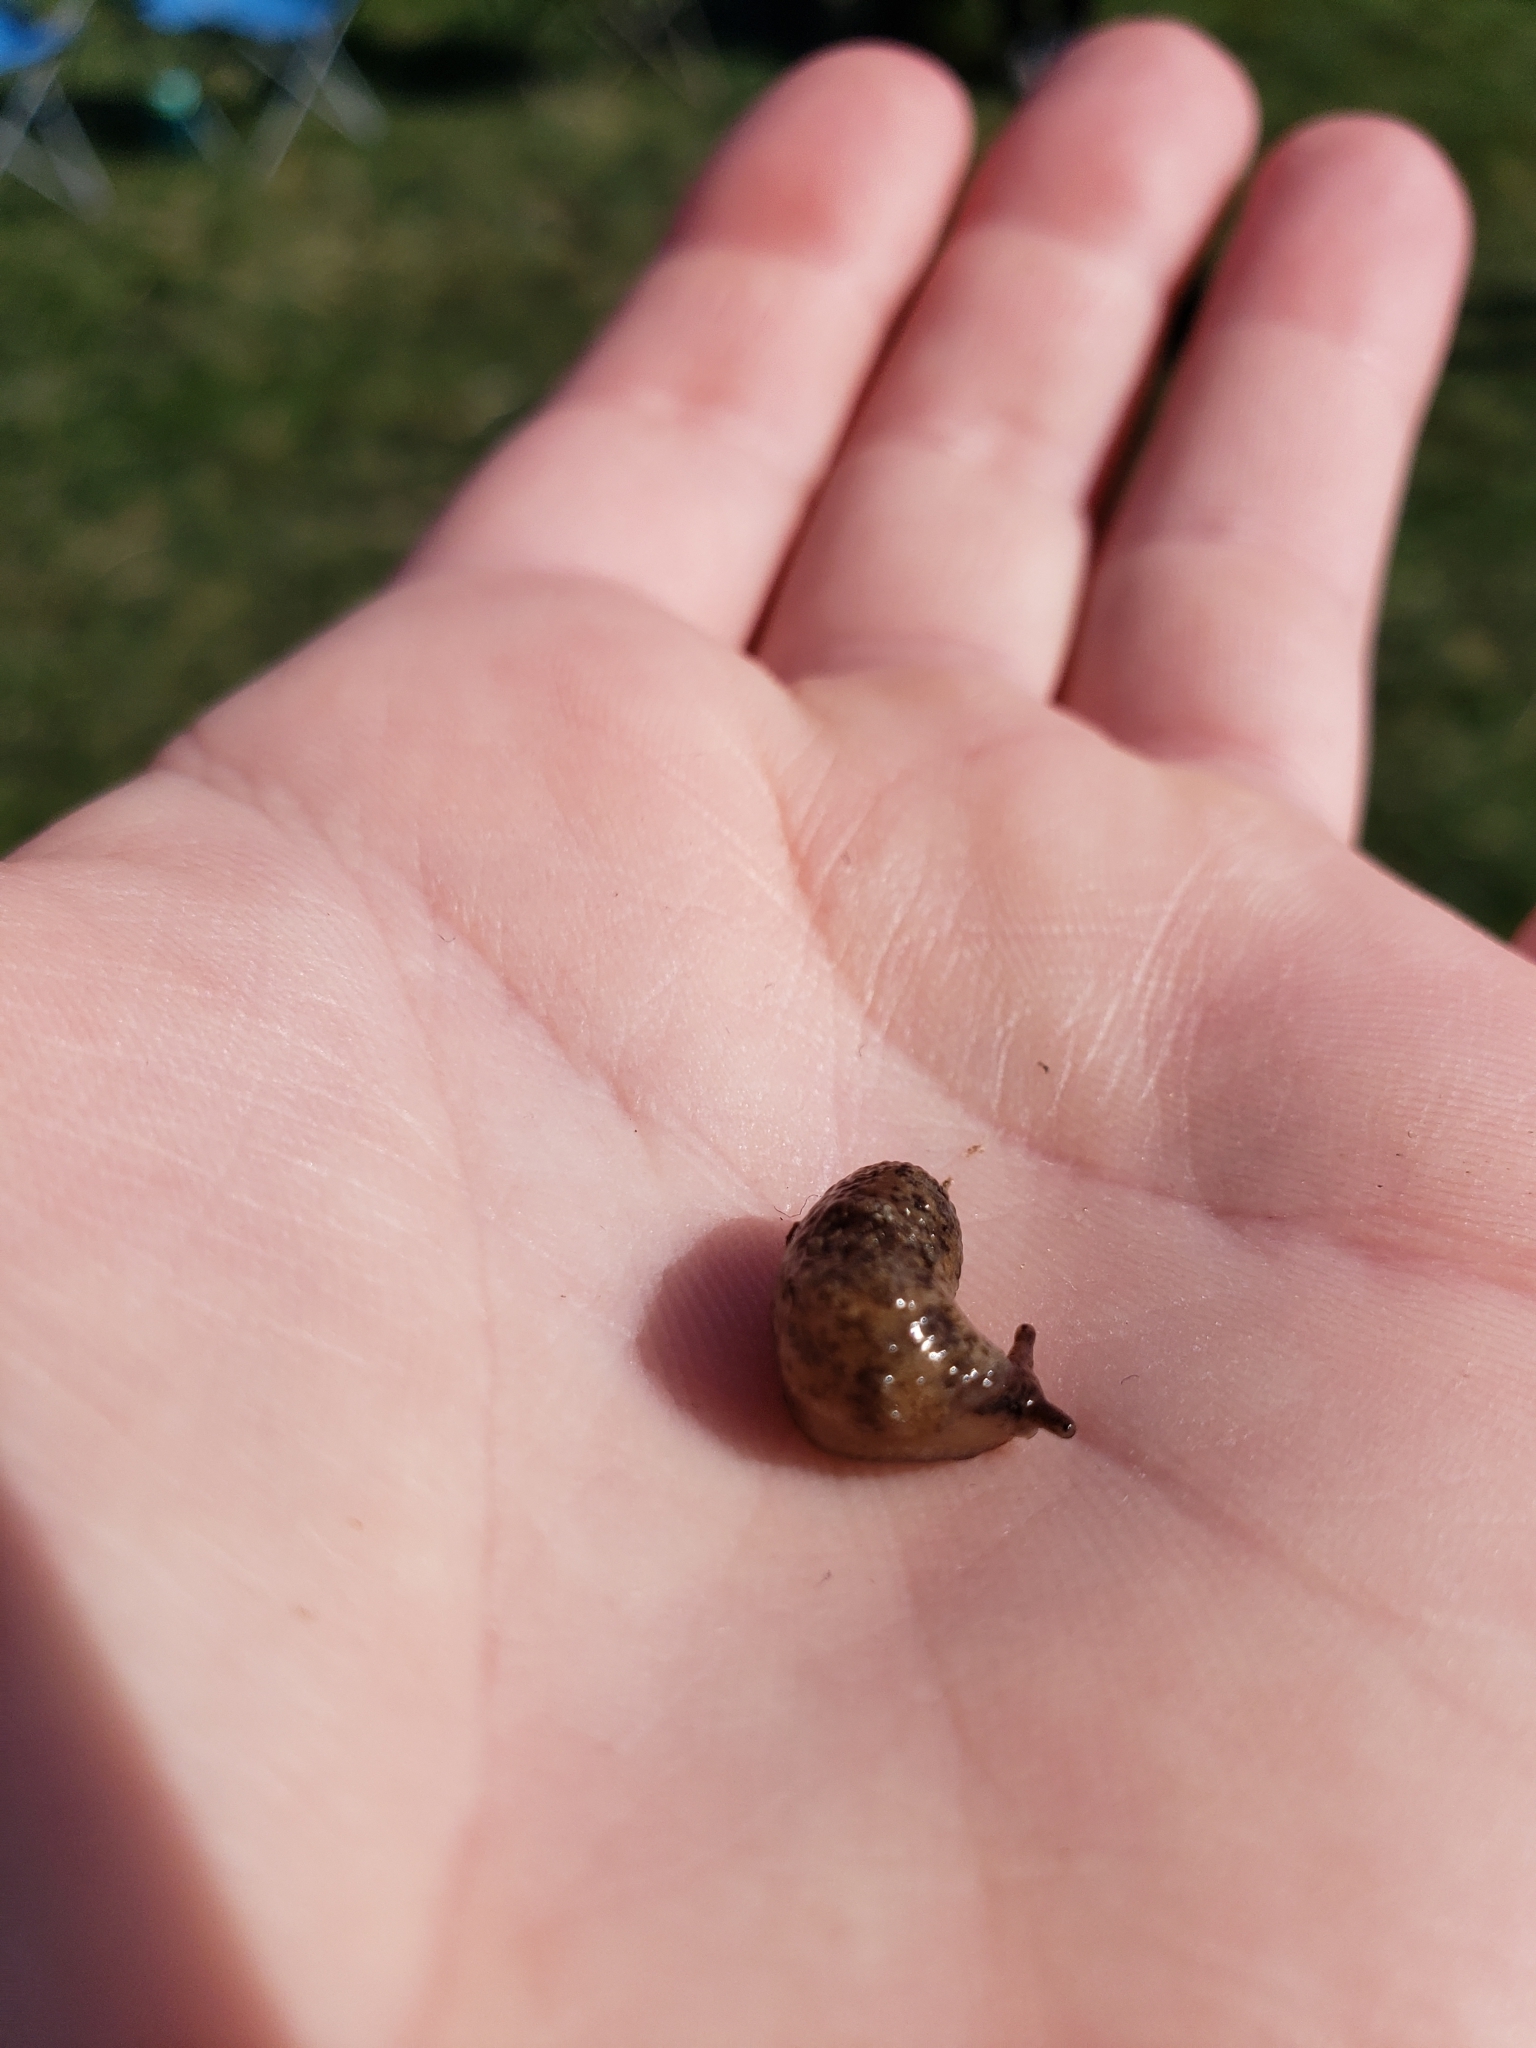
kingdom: Animalia
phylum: Mollusca
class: Gastropoda
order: Stylommatophora
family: Agriolimacidae
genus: Deroceras
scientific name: Deroceras reticulatum
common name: Gray field slug
